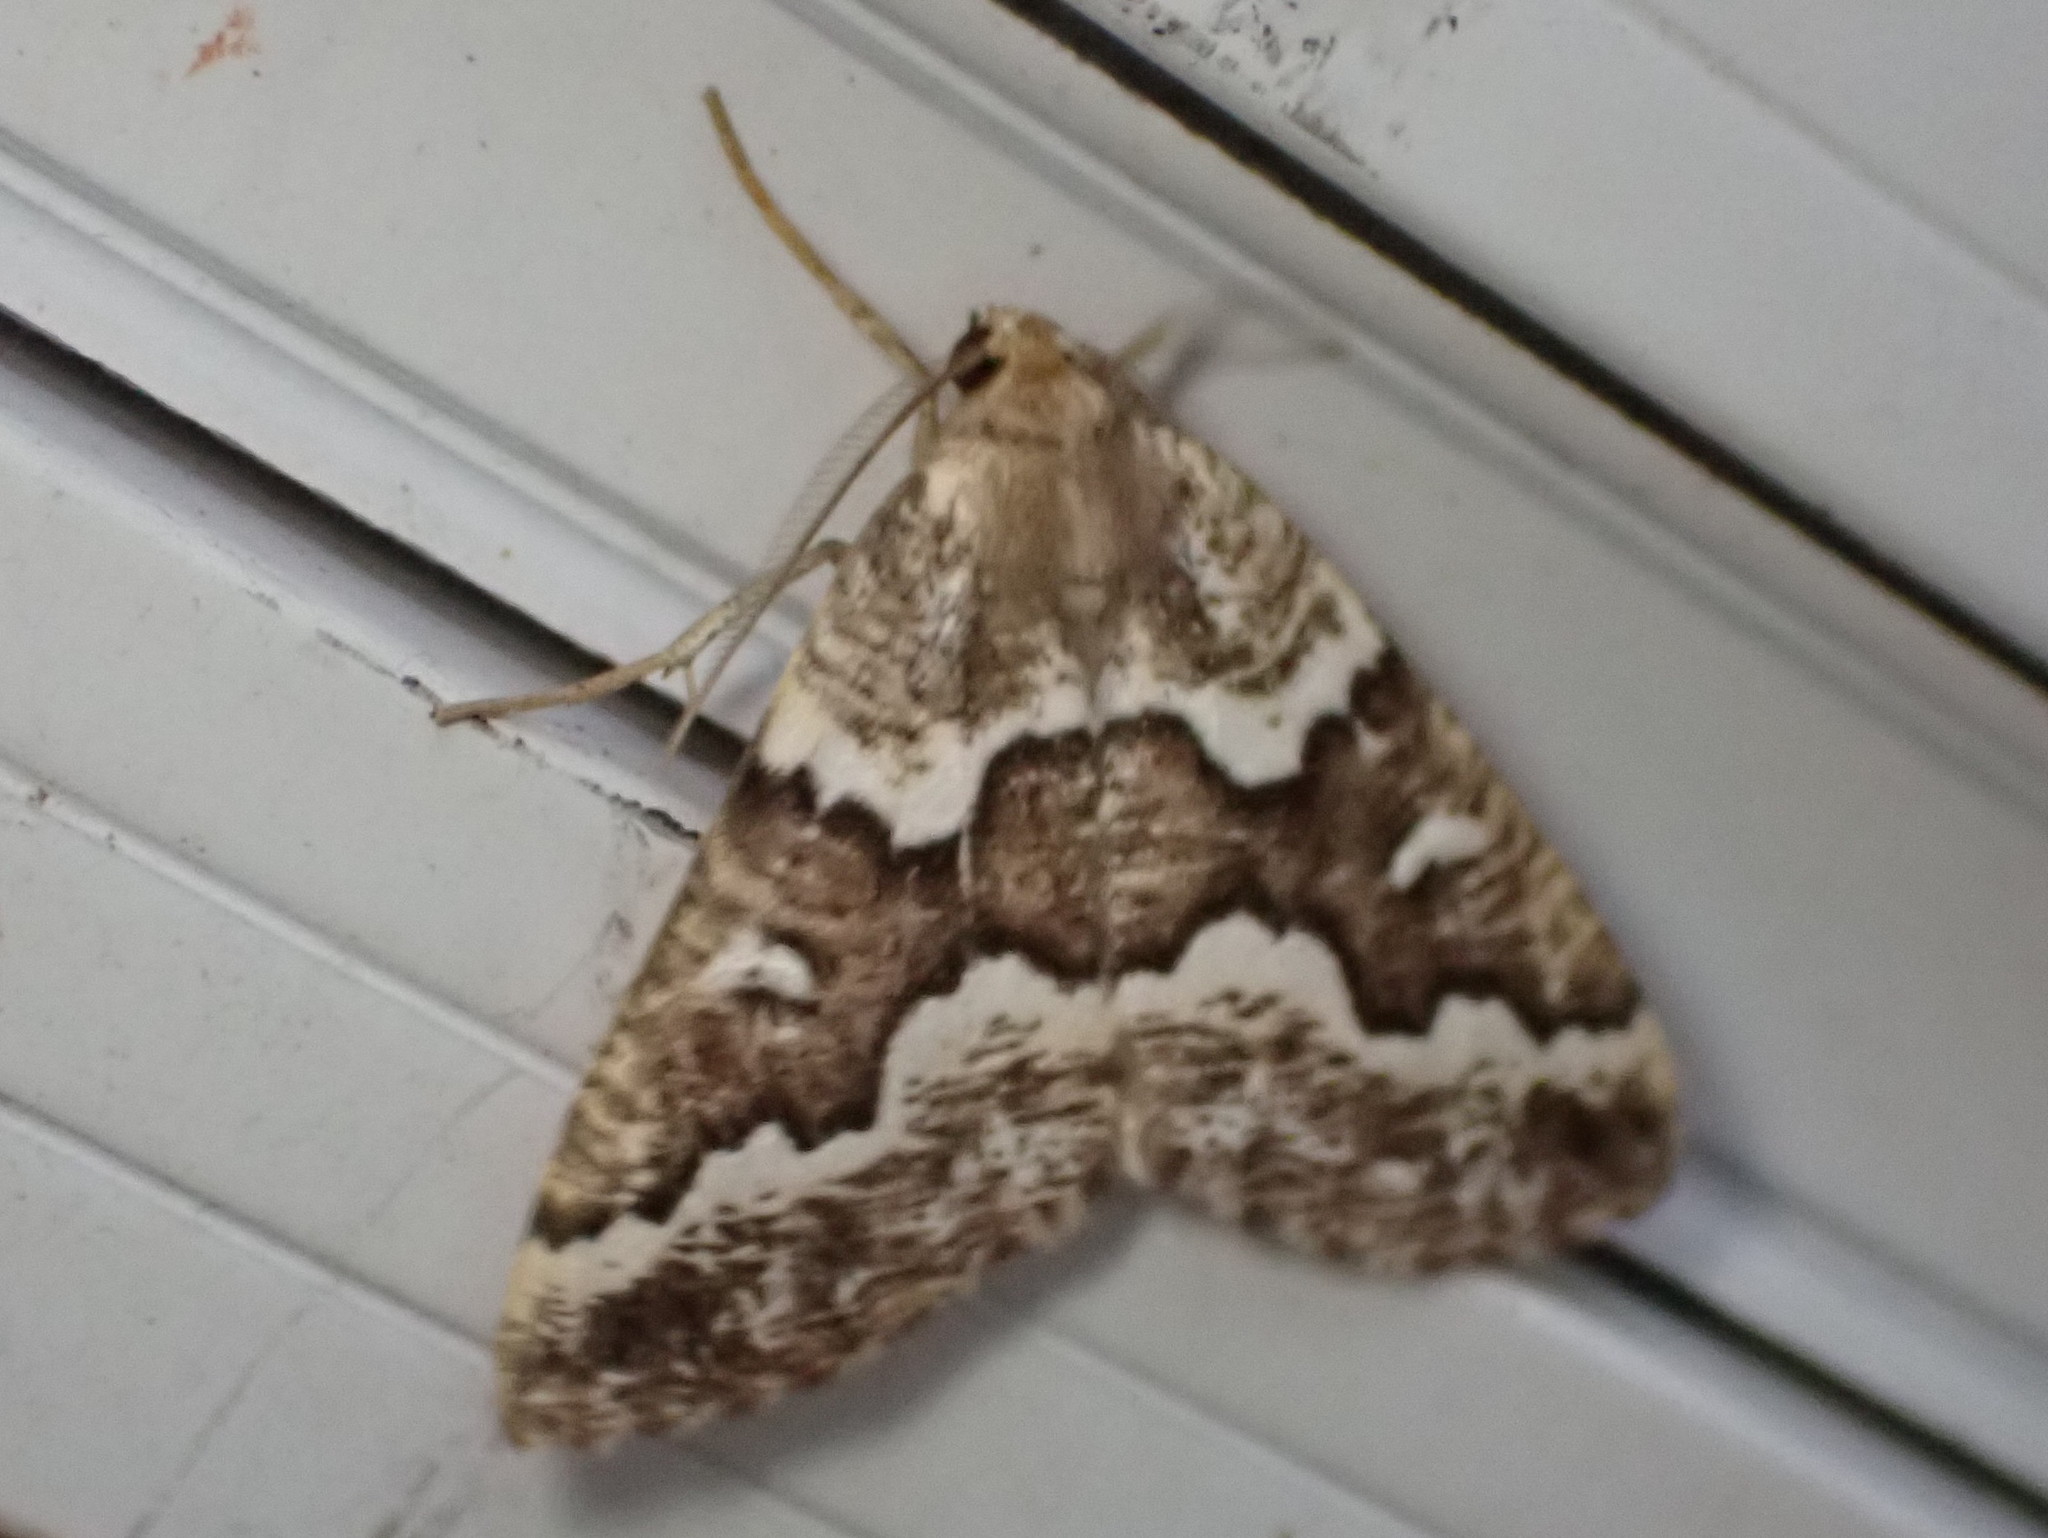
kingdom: Animalia
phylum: Arthropoda
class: Insecta
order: Lepidoptera
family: Geometridae
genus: Caripeta
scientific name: Caripeta divisata
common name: Gray spruce looper
